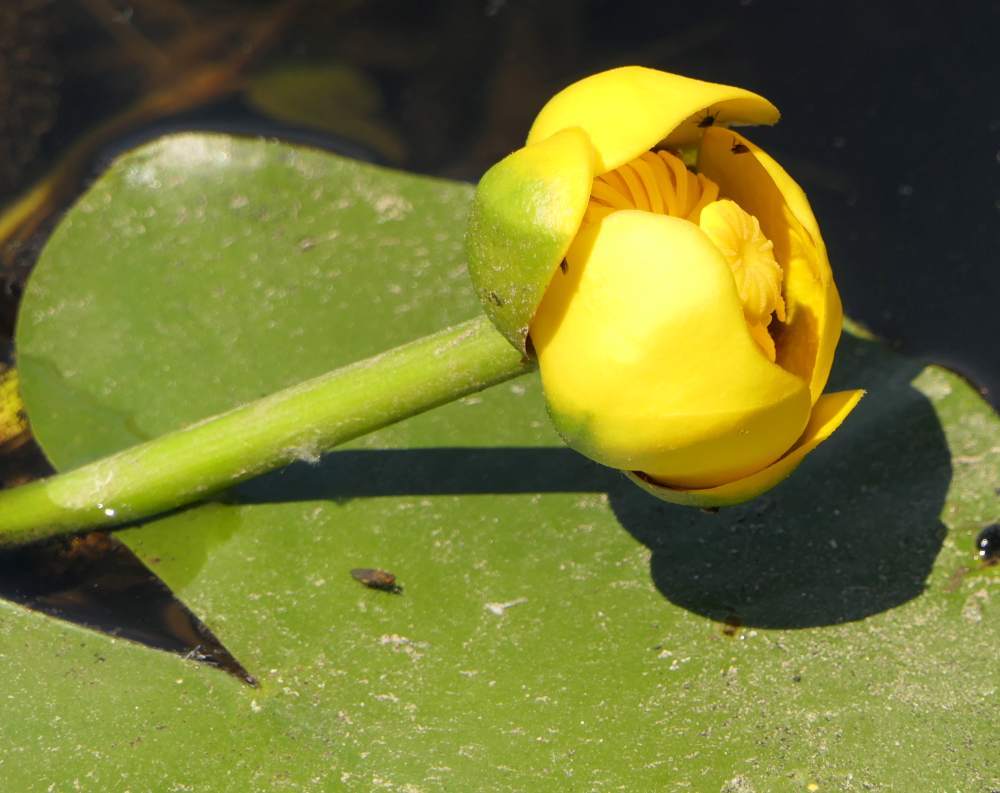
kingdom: Plantae
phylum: Tracheophyta
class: Magnoliopsida
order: Nymphaeales
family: Nymphaeaceae
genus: Nuphar
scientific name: Nuphar variegata
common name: Beaver-root
